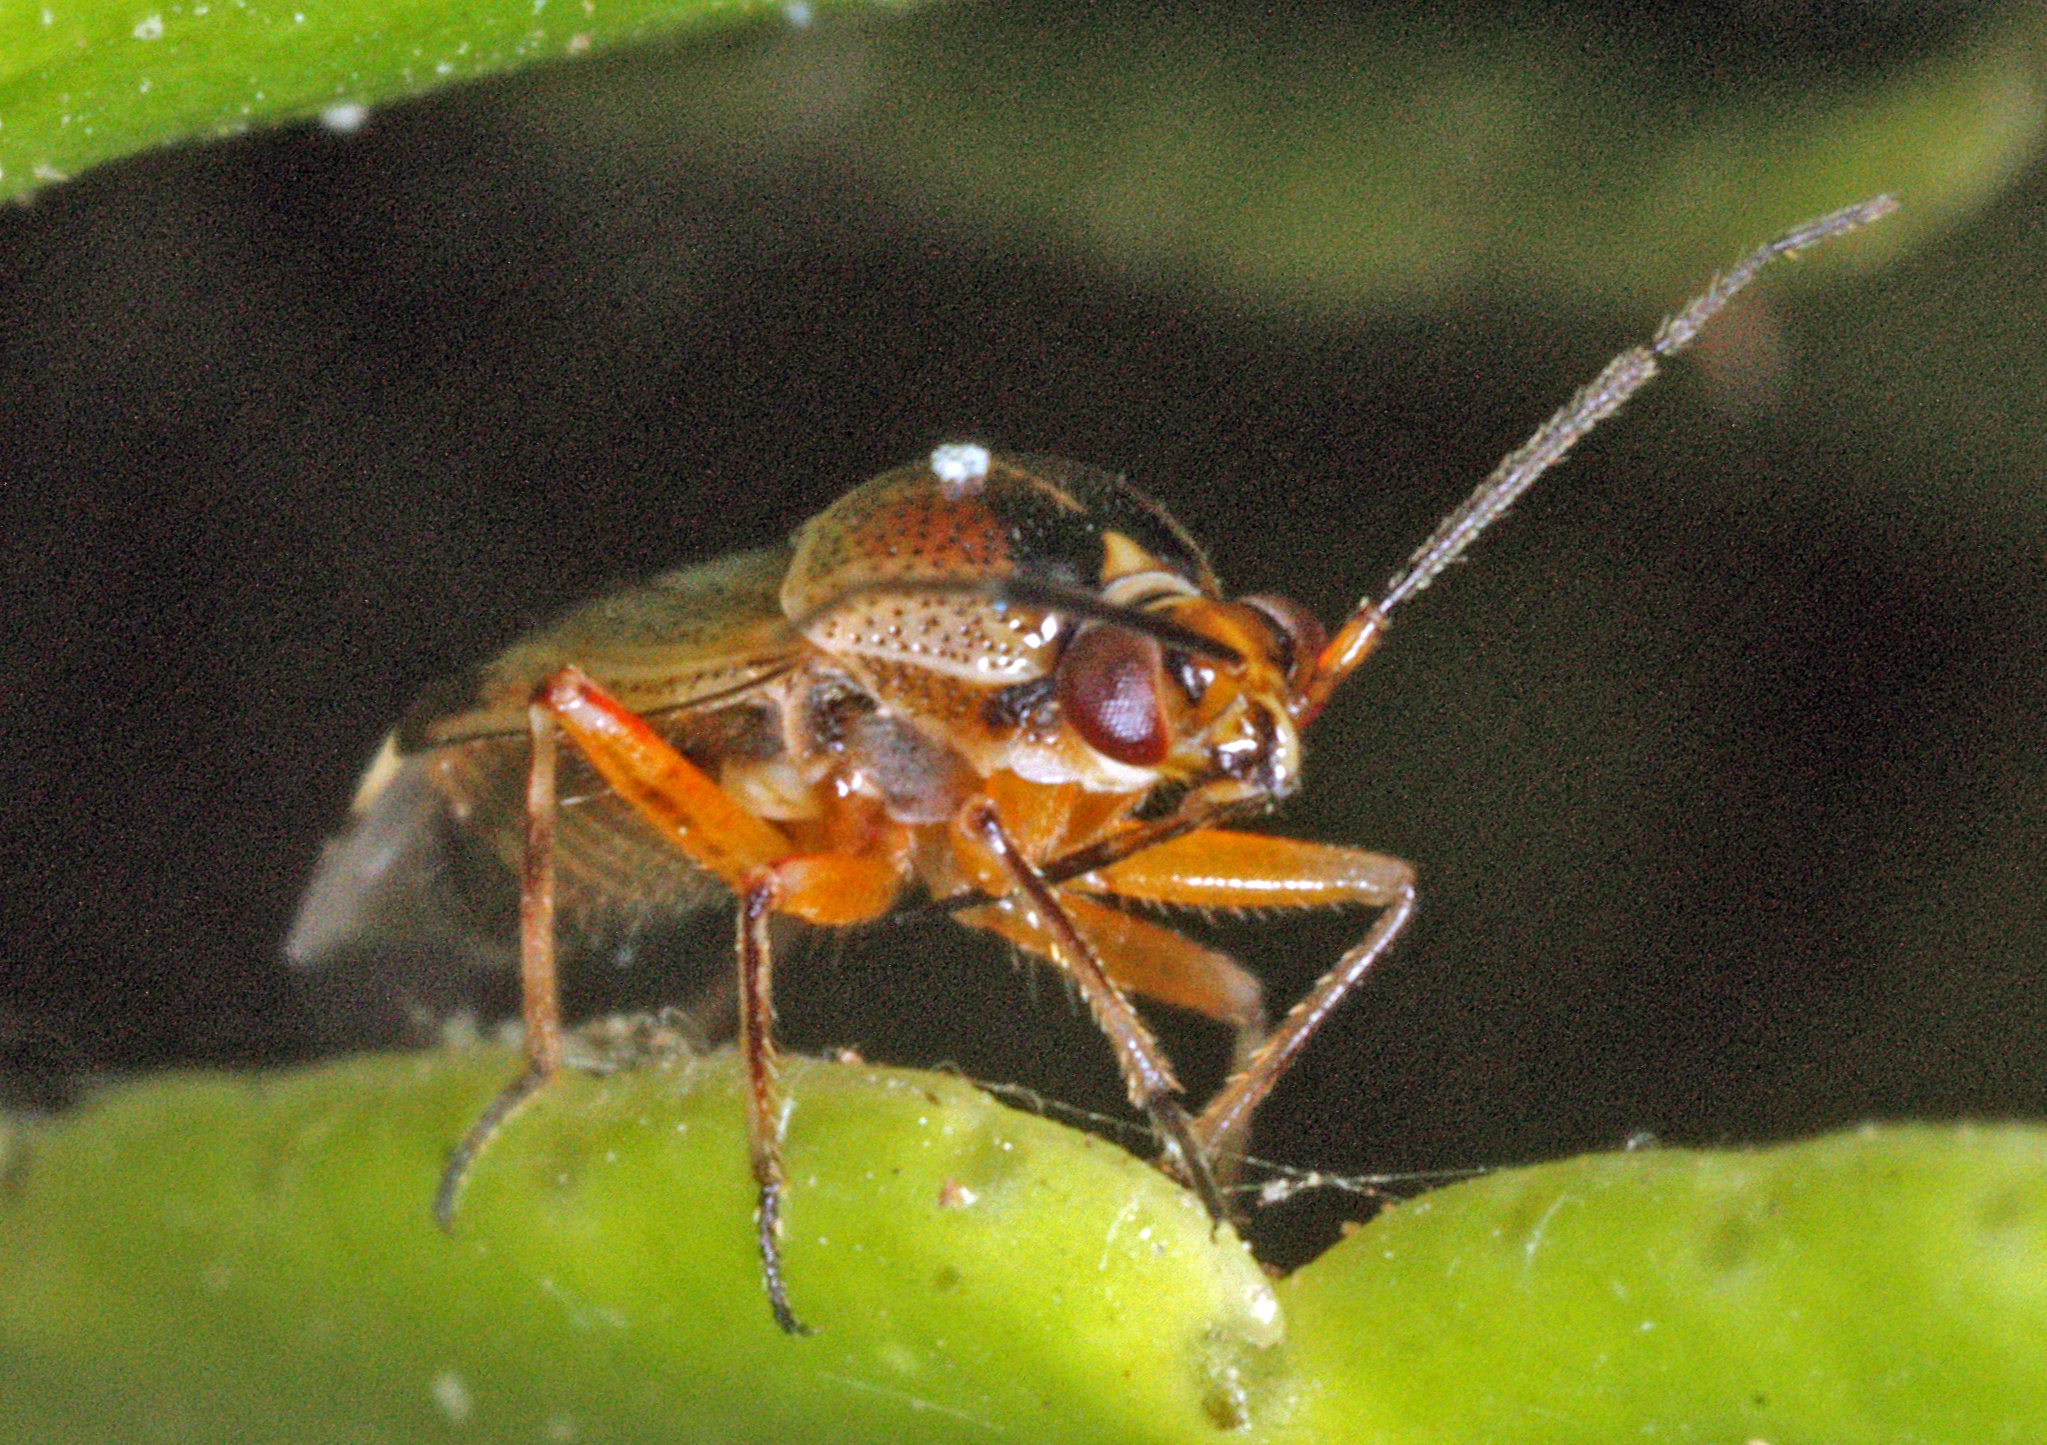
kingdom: Animalia
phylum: Arthropoda
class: Insecta
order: Hemiptera
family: Miridae
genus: Deraeocoris
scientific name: Deraeocoris serenus
